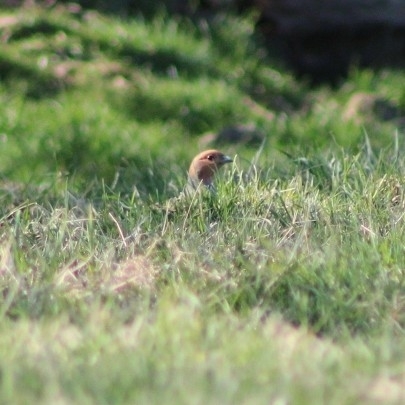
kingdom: Animalia
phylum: Chordata
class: Aves
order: Galliformes
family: Phasianidae
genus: Perdix
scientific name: Perdix perdix
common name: Grey partridge
